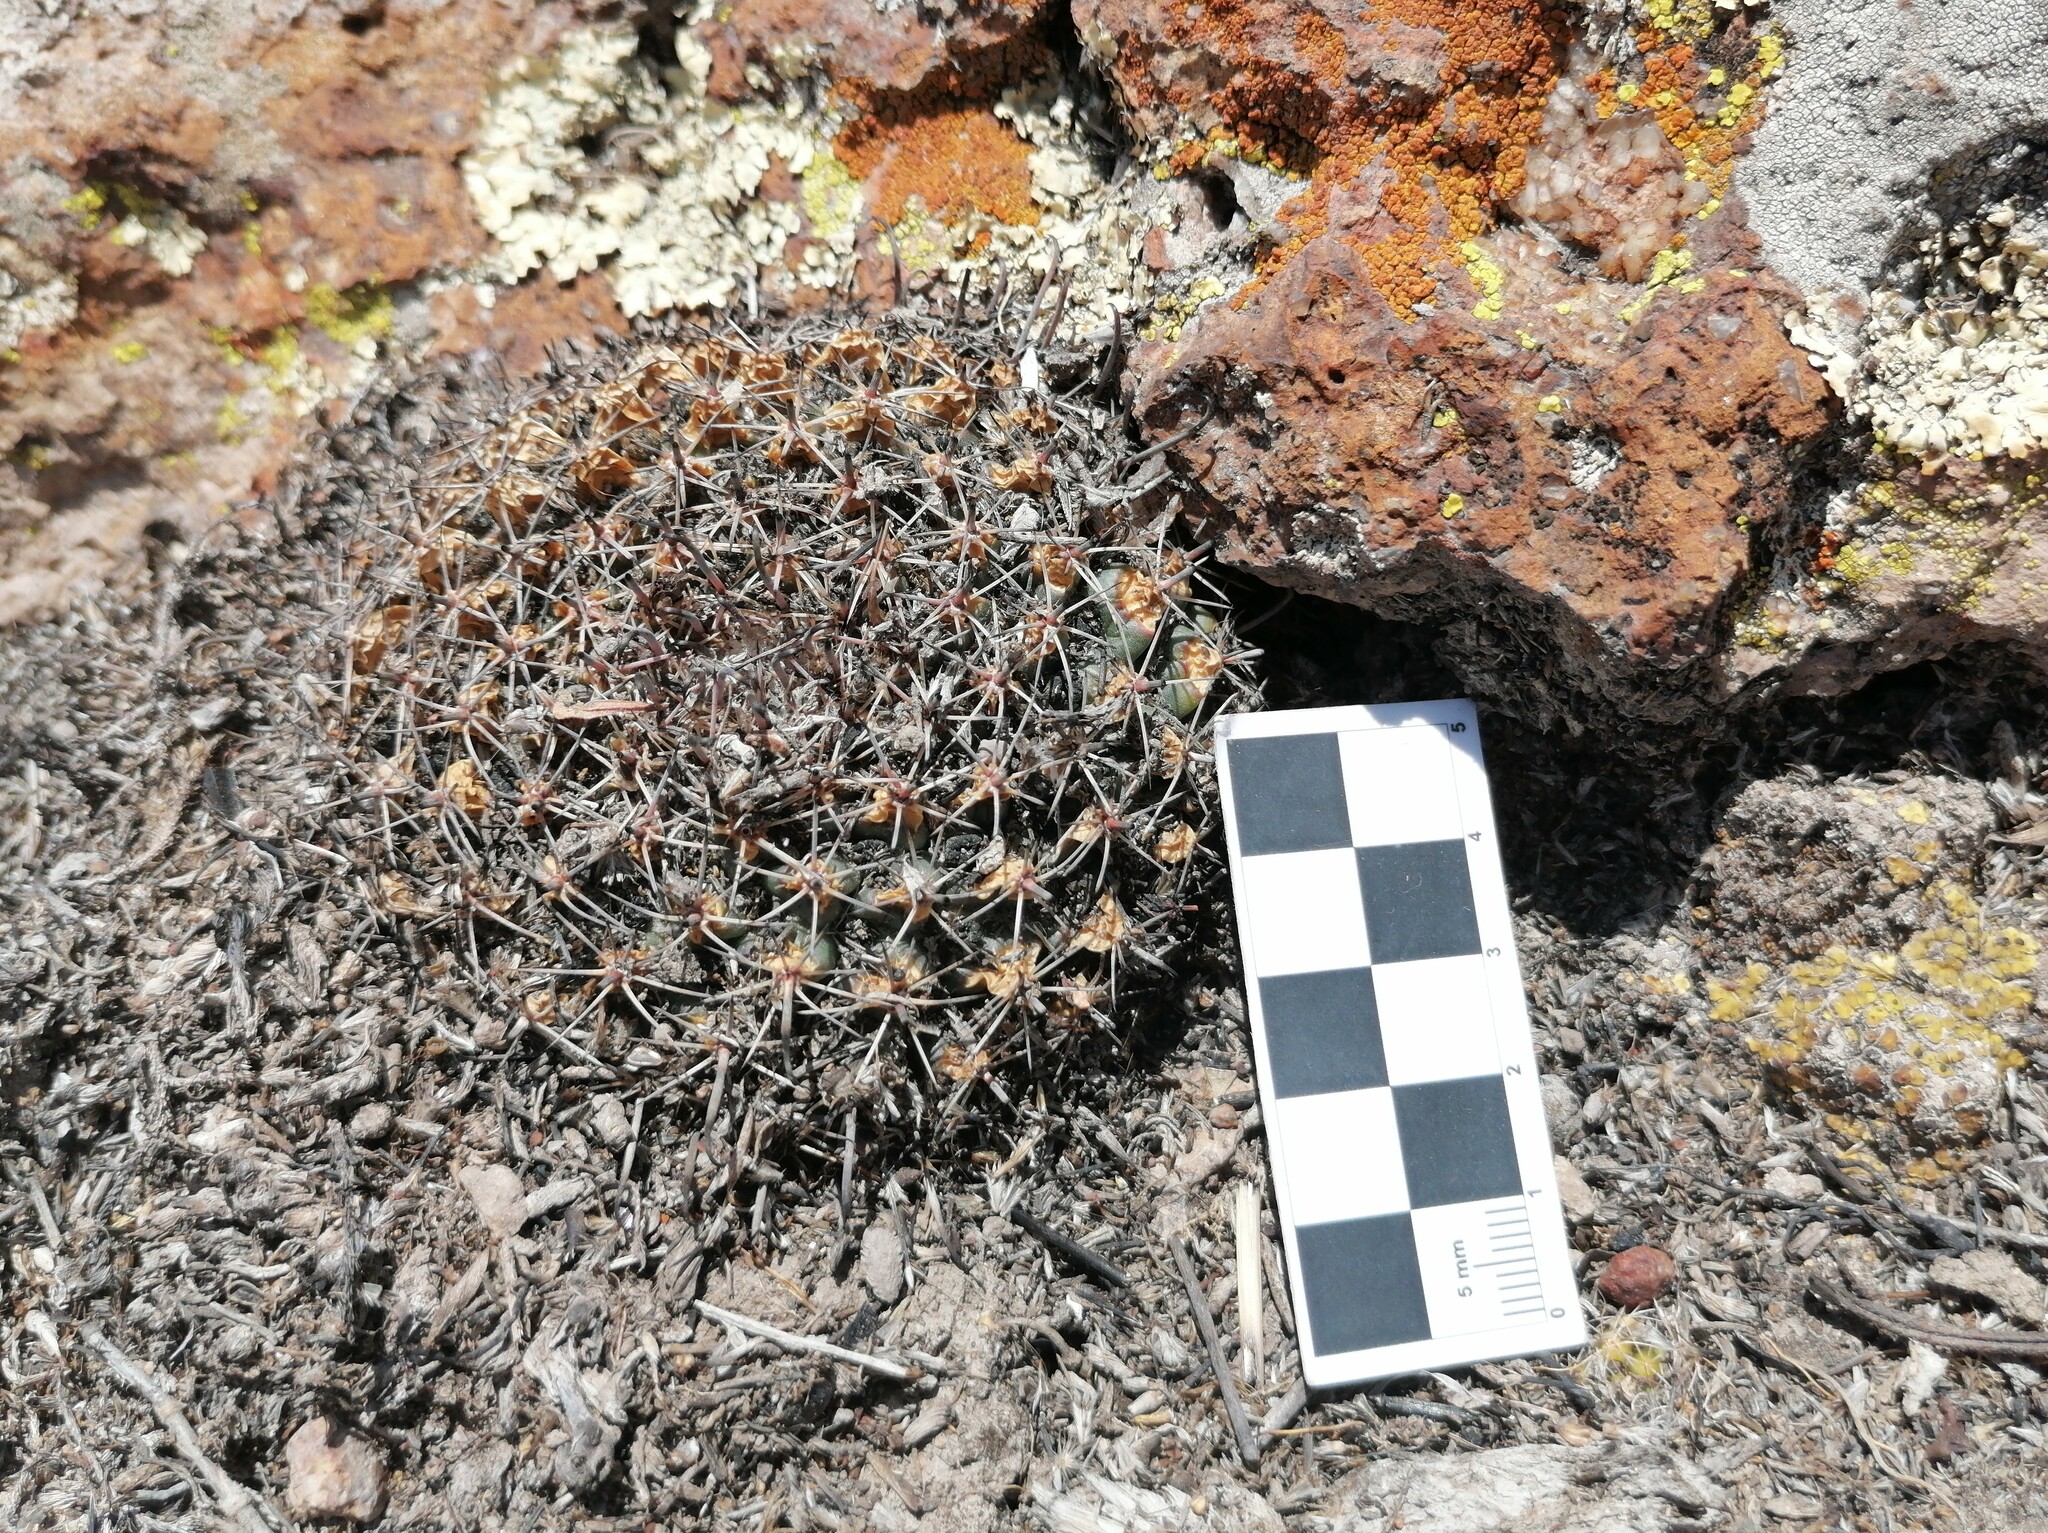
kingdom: Plantae
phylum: Tracheophyta
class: Magnoliopsida
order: Caryophyllales
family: Cactaceae
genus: Mammillaria
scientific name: Mammillaria uncinata
